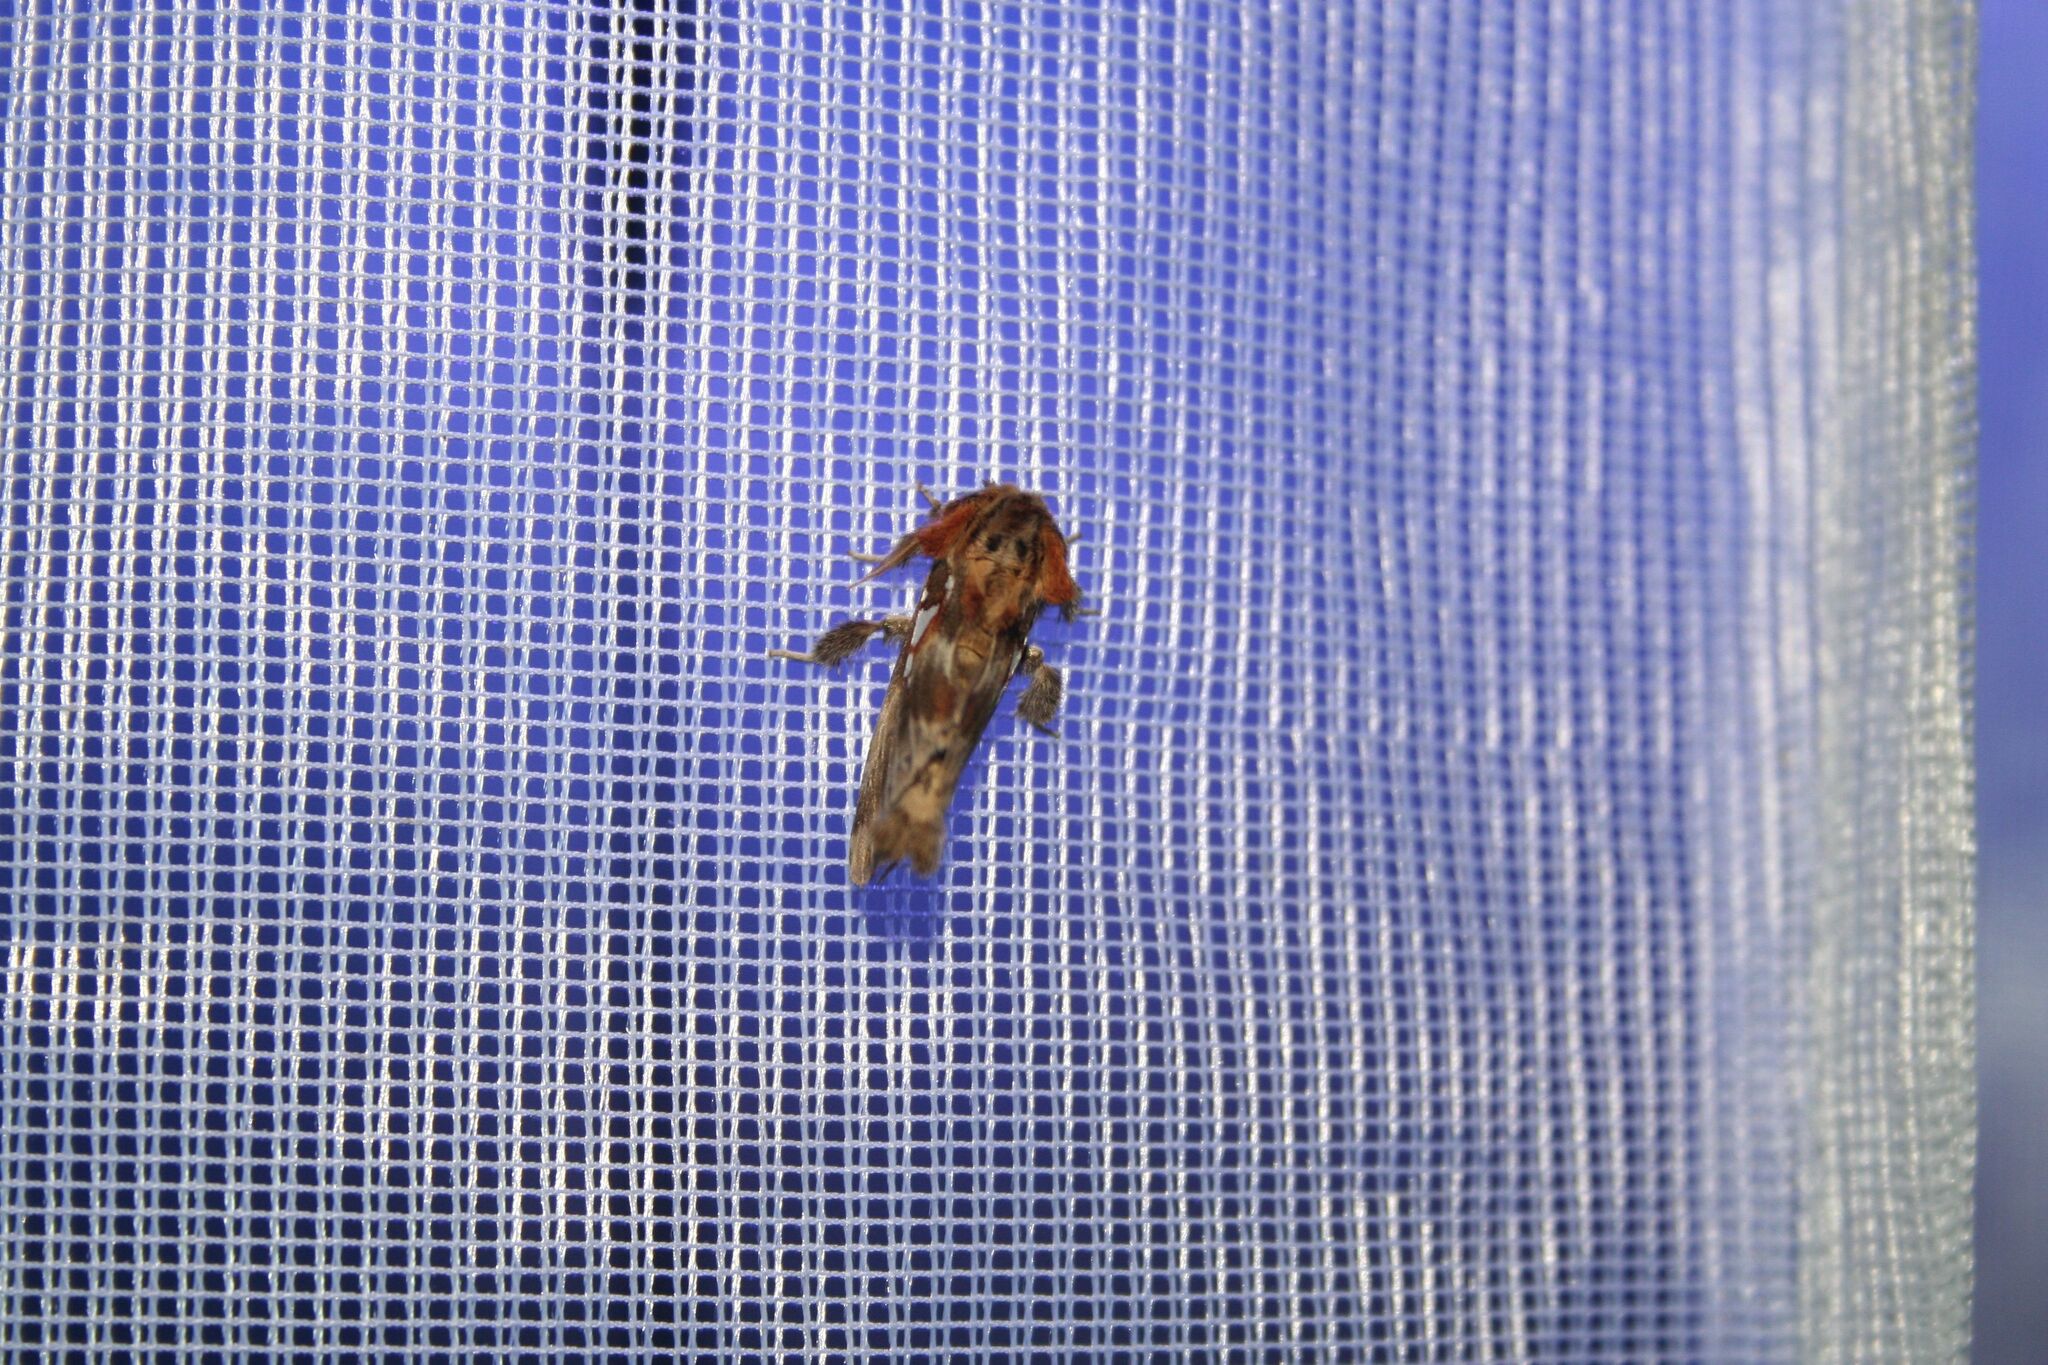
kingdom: Animalia
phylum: Arthropoda
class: Insecta
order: Lepidoptera
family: Notodontidae
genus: Spatalia
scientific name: Spatalia argentina
